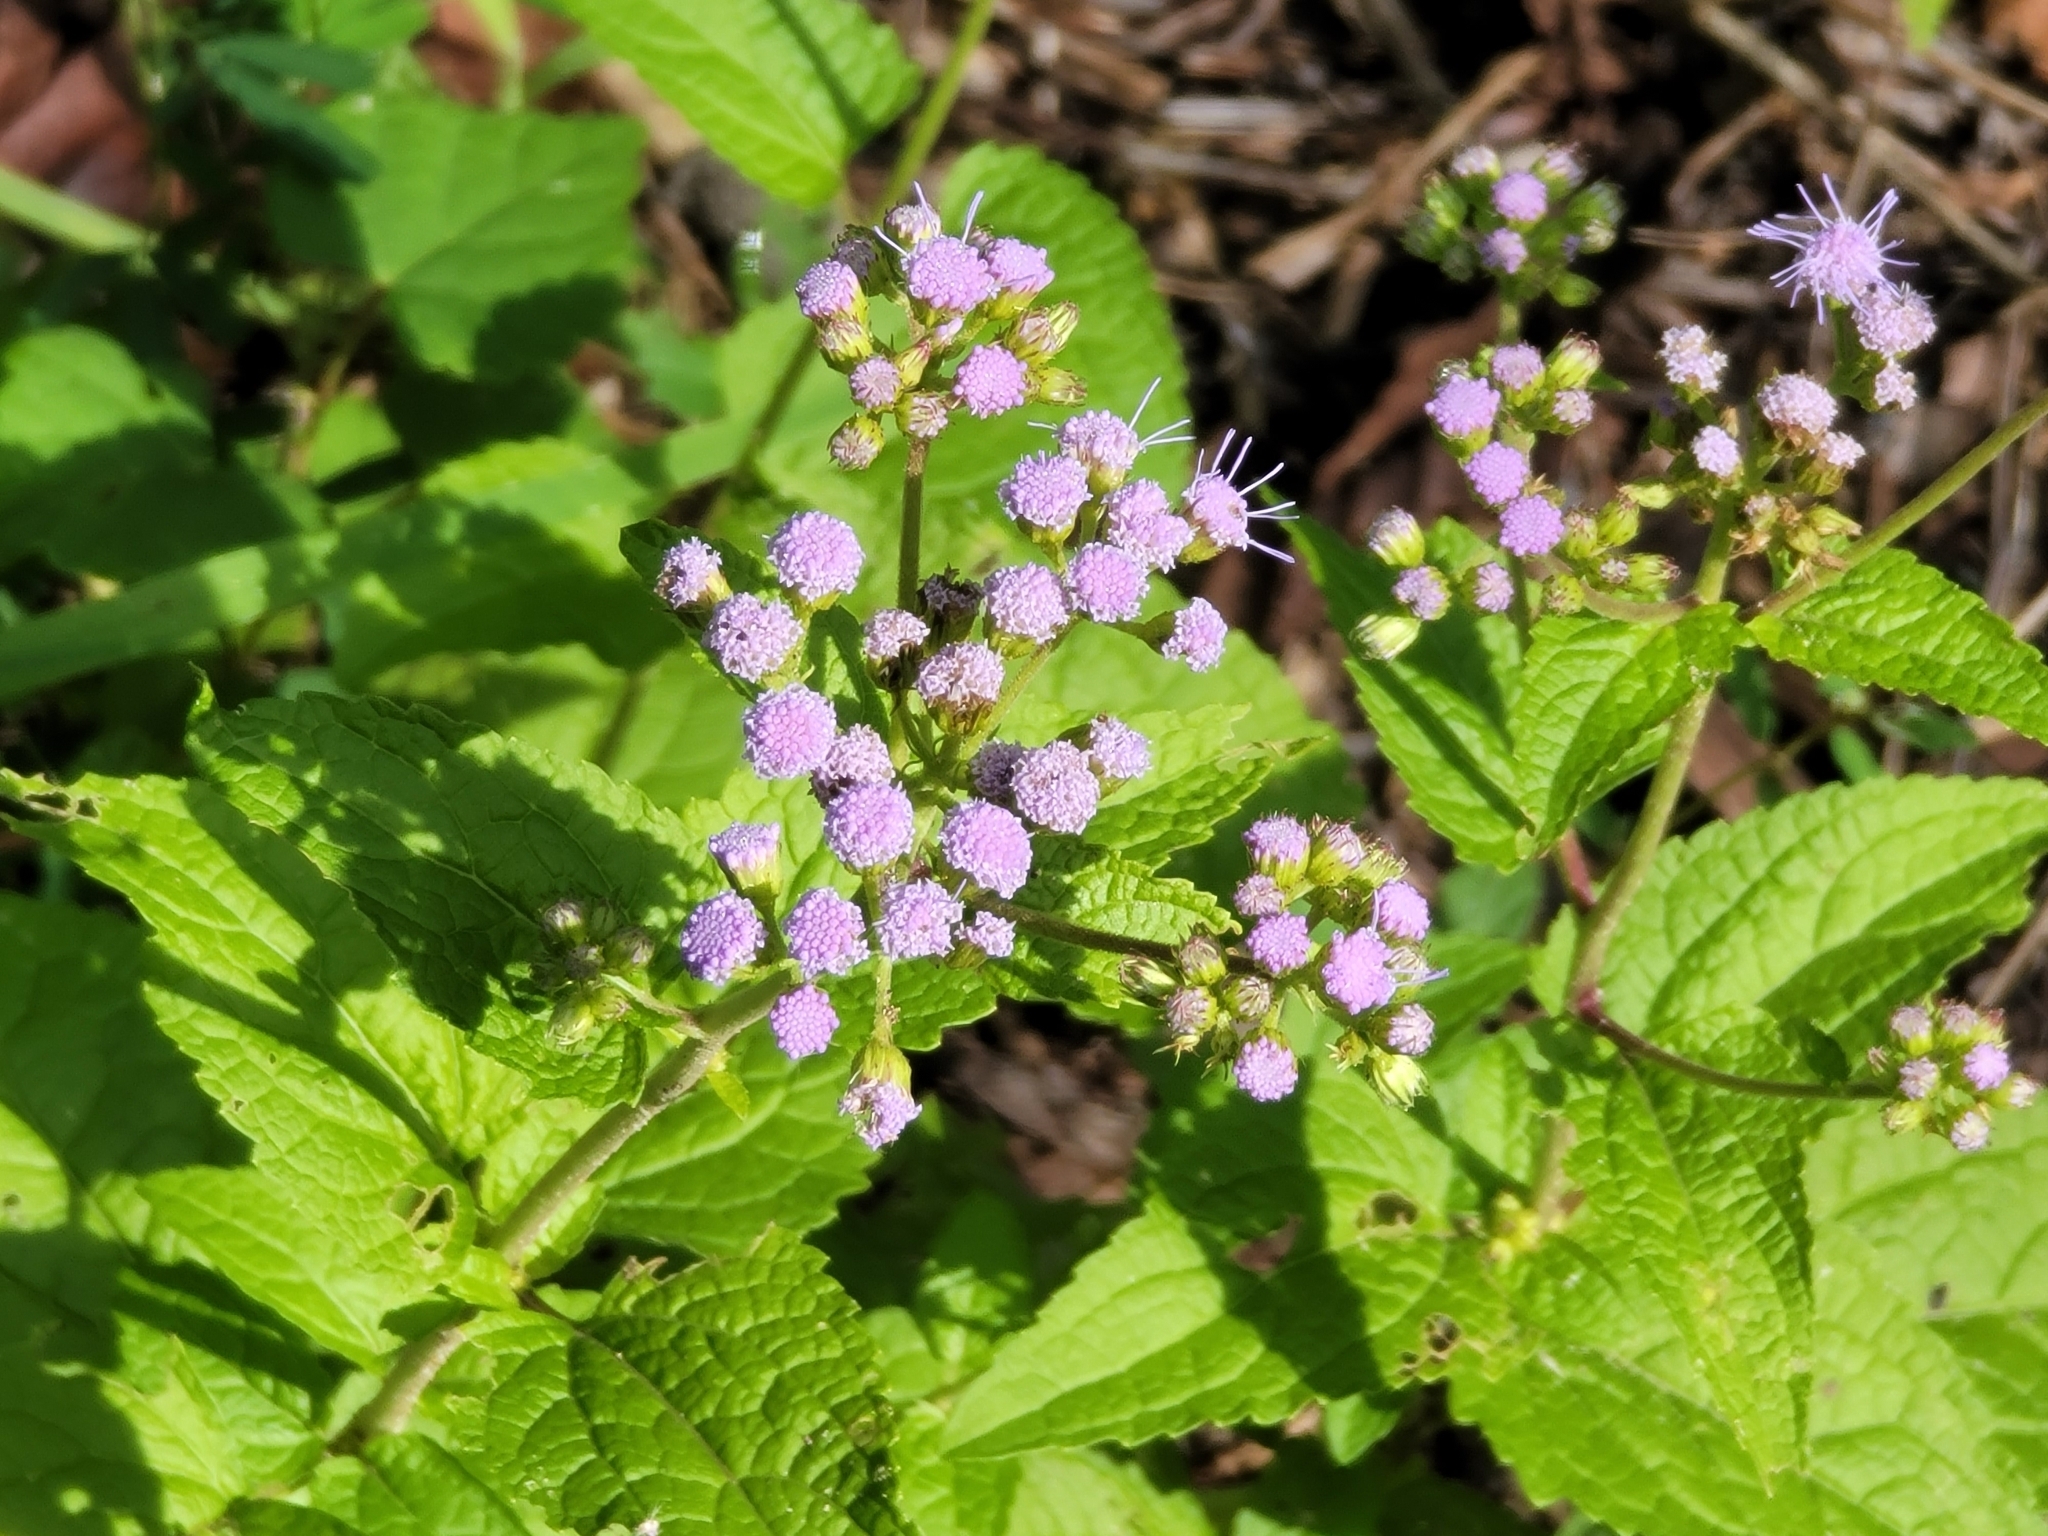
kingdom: Plantae
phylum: Tracheophyta
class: Magnoliopsida
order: Asterales
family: Asteraceae
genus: Conoclinium
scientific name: Conoclinium coelestinum
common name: Blue mistflower
